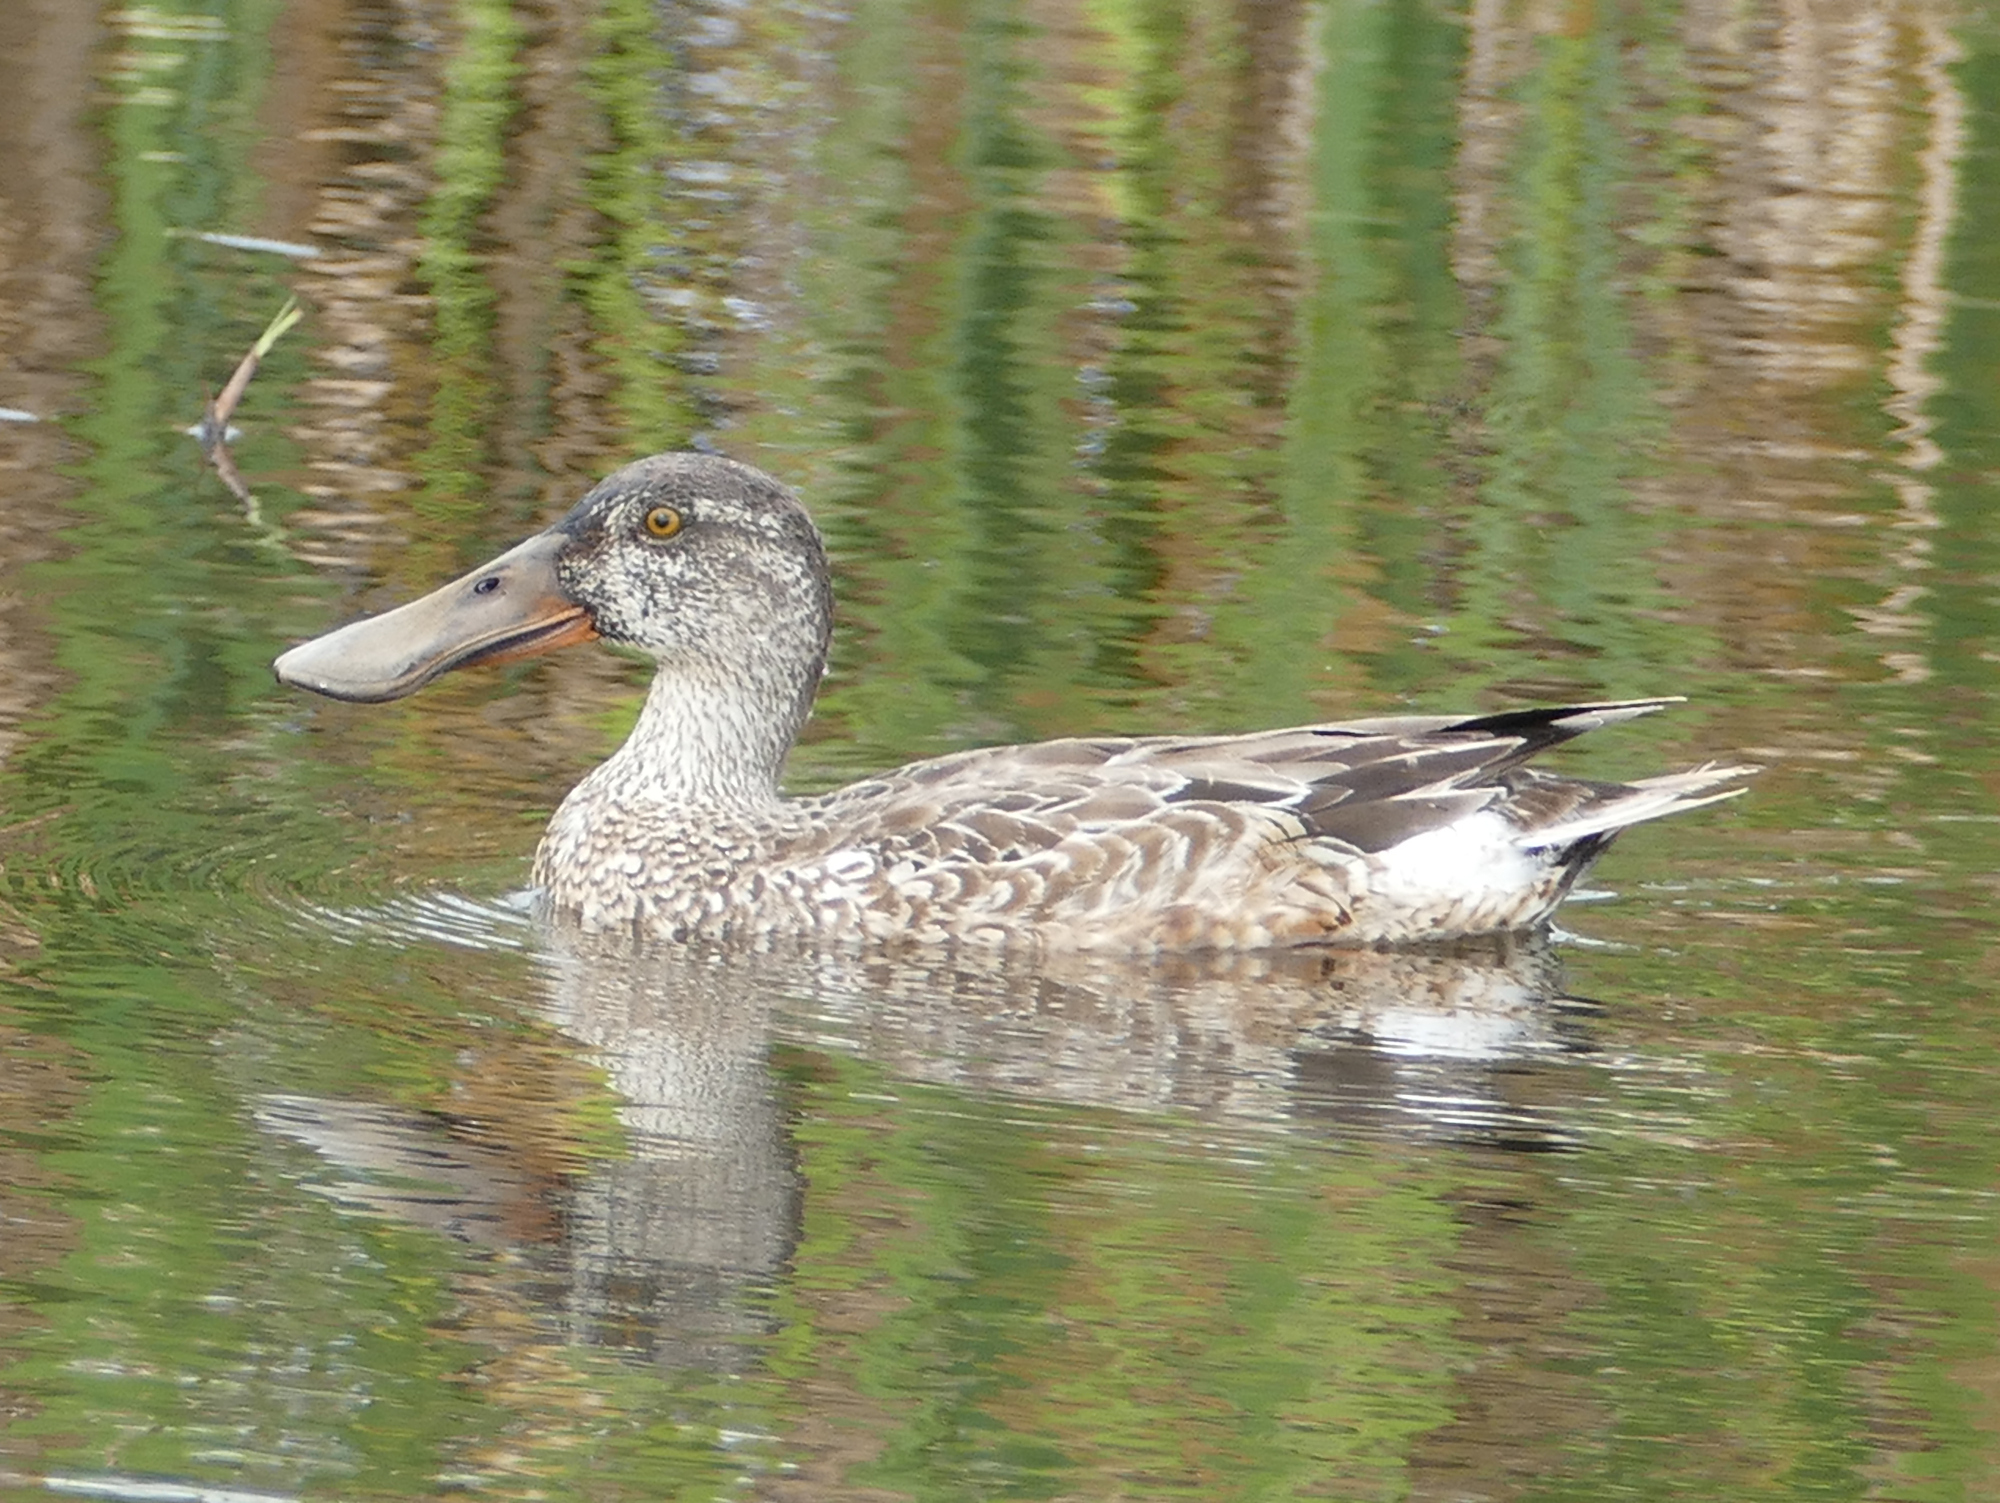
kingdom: Animalia
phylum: Chordata
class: Aves
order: Anseriformes
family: Anatidae
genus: Spatula
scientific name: Spatula clypeata
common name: Northern shoveler
